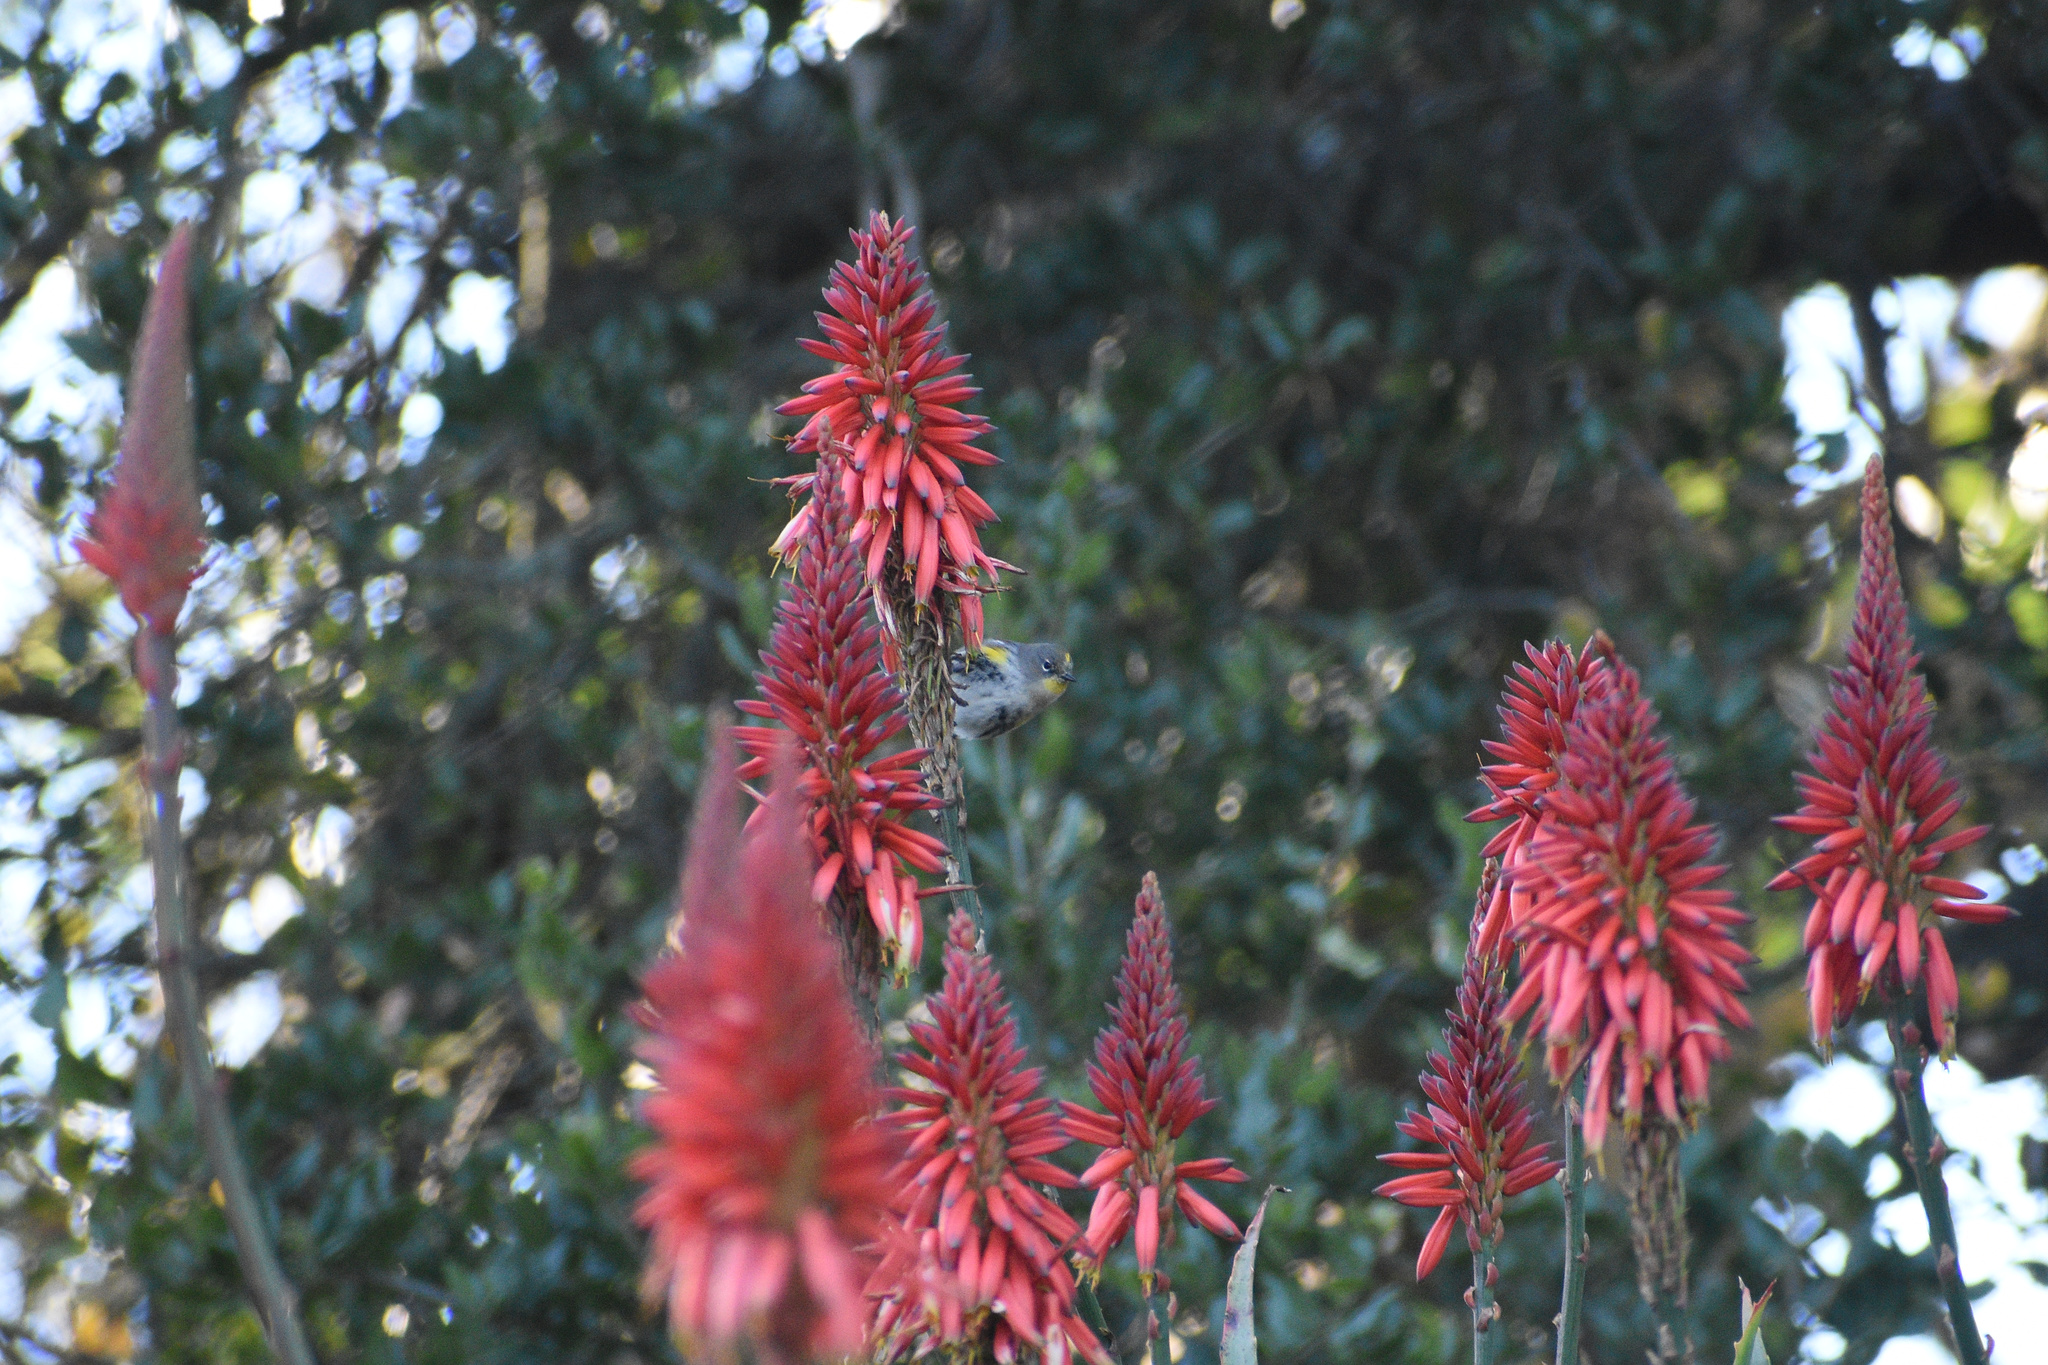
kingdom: Animalia
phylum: Chordata
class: Aves
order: Passeriformes
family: Parulidae
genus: Setophaga
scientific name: Setophaga auduboni
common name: Audubon's warbler
